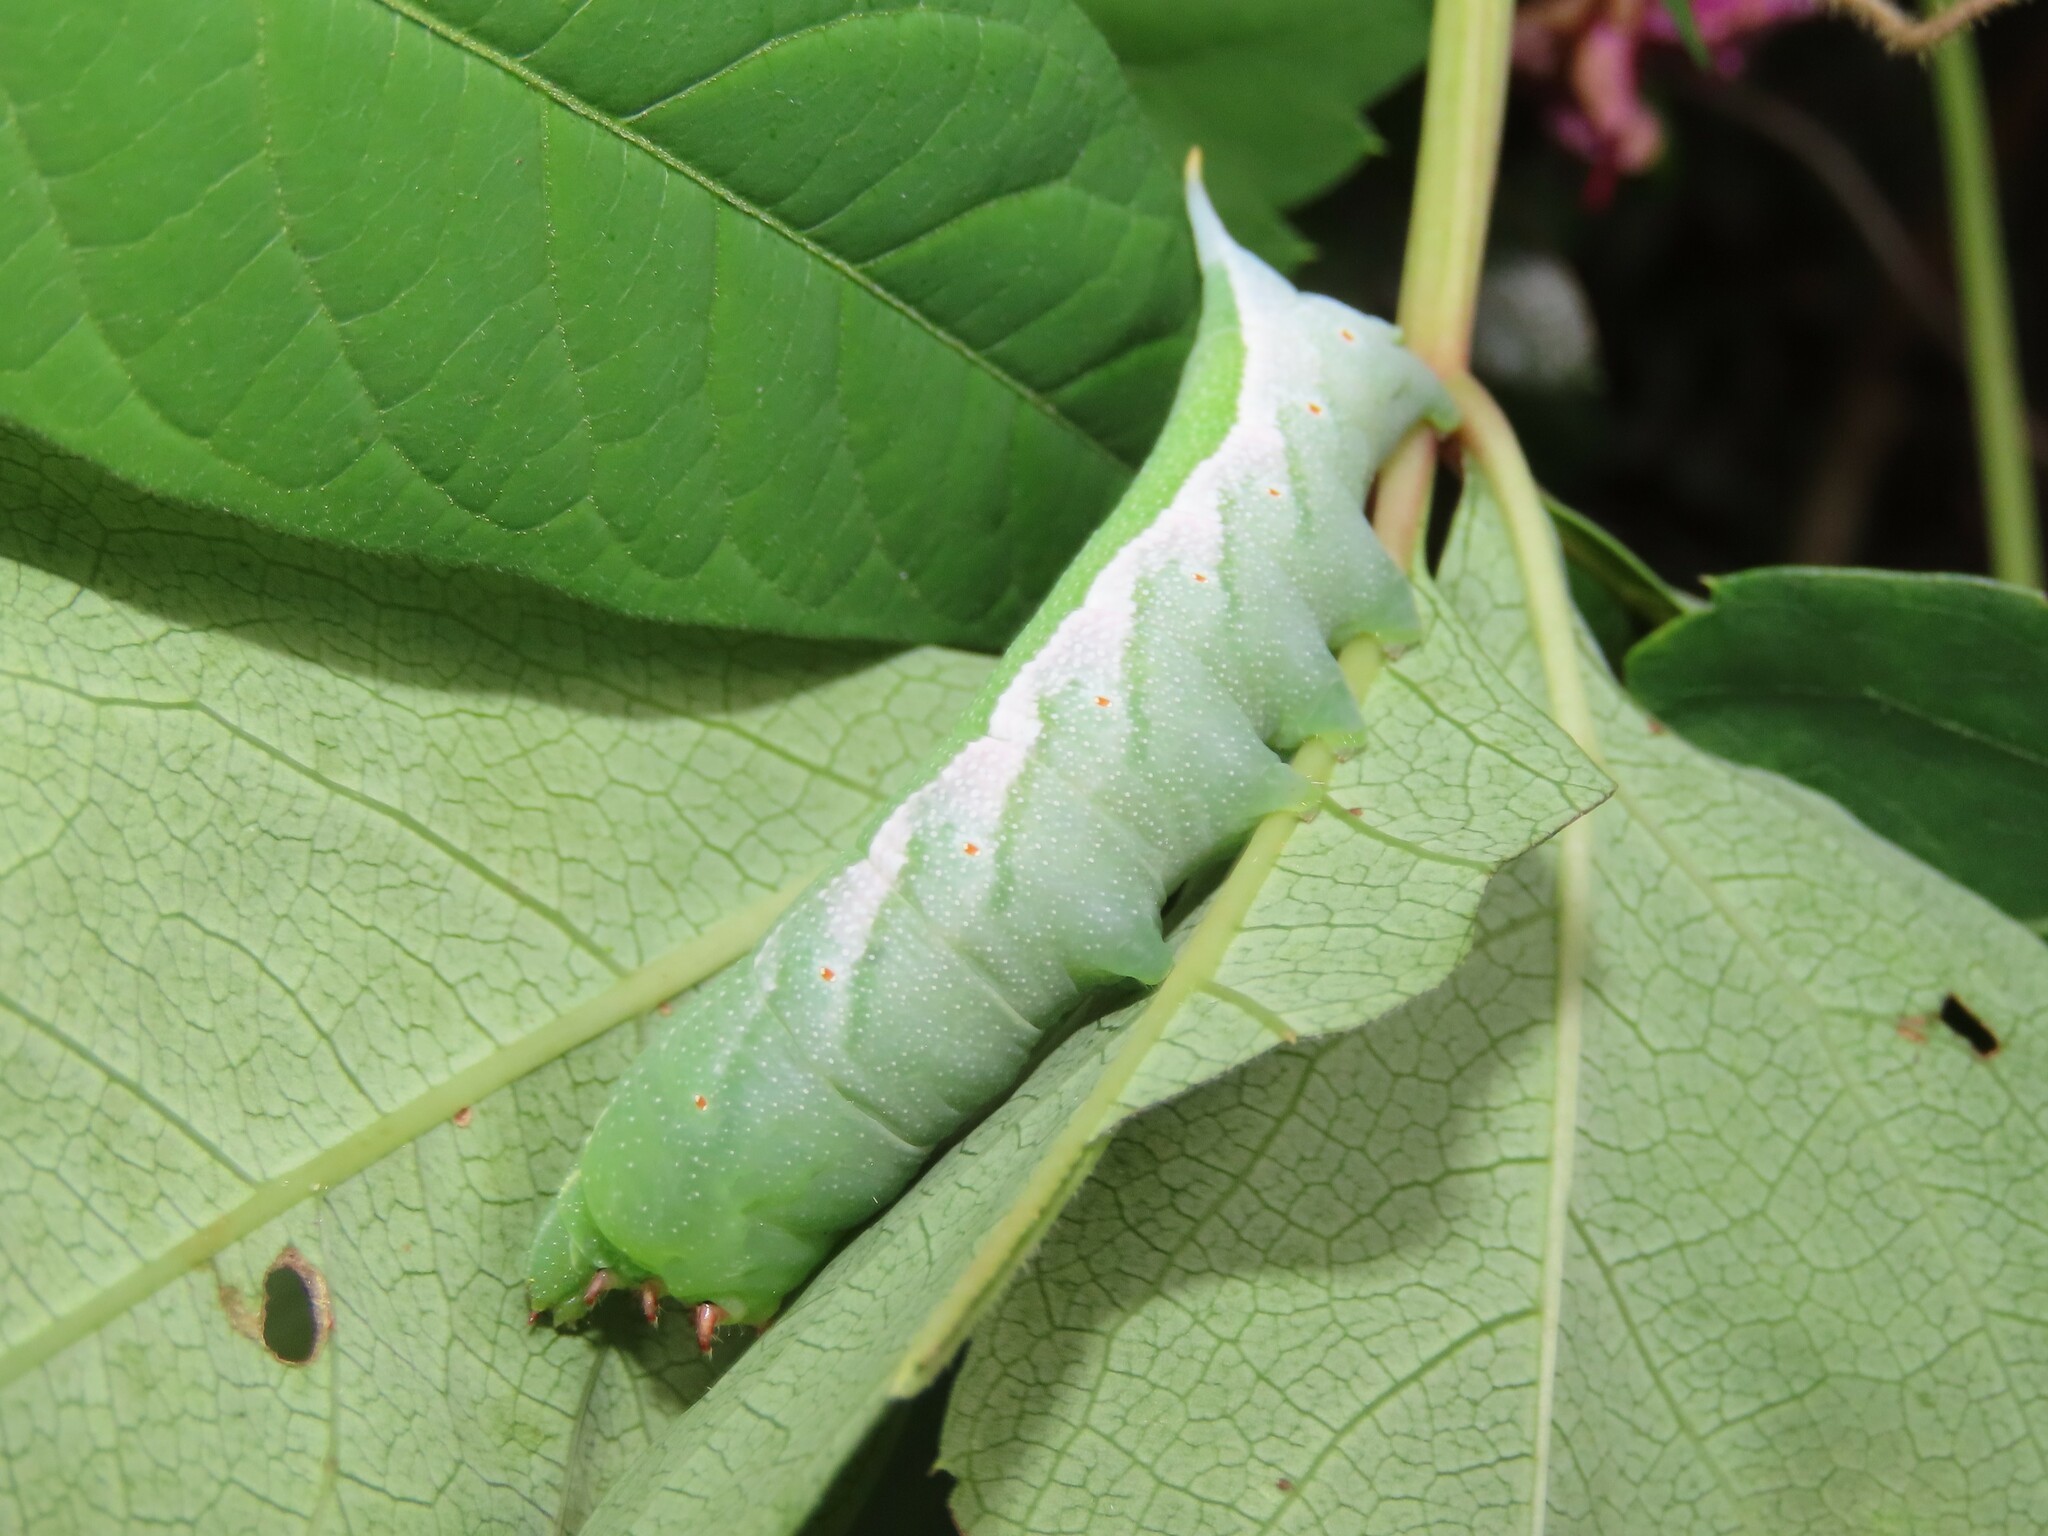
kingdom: Animalia
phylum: Arthropoda
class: Insecta
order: Lepidoptera
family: Sphingidae
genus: Darapsa
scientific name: Darapsa myron
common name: Hog sphinx
